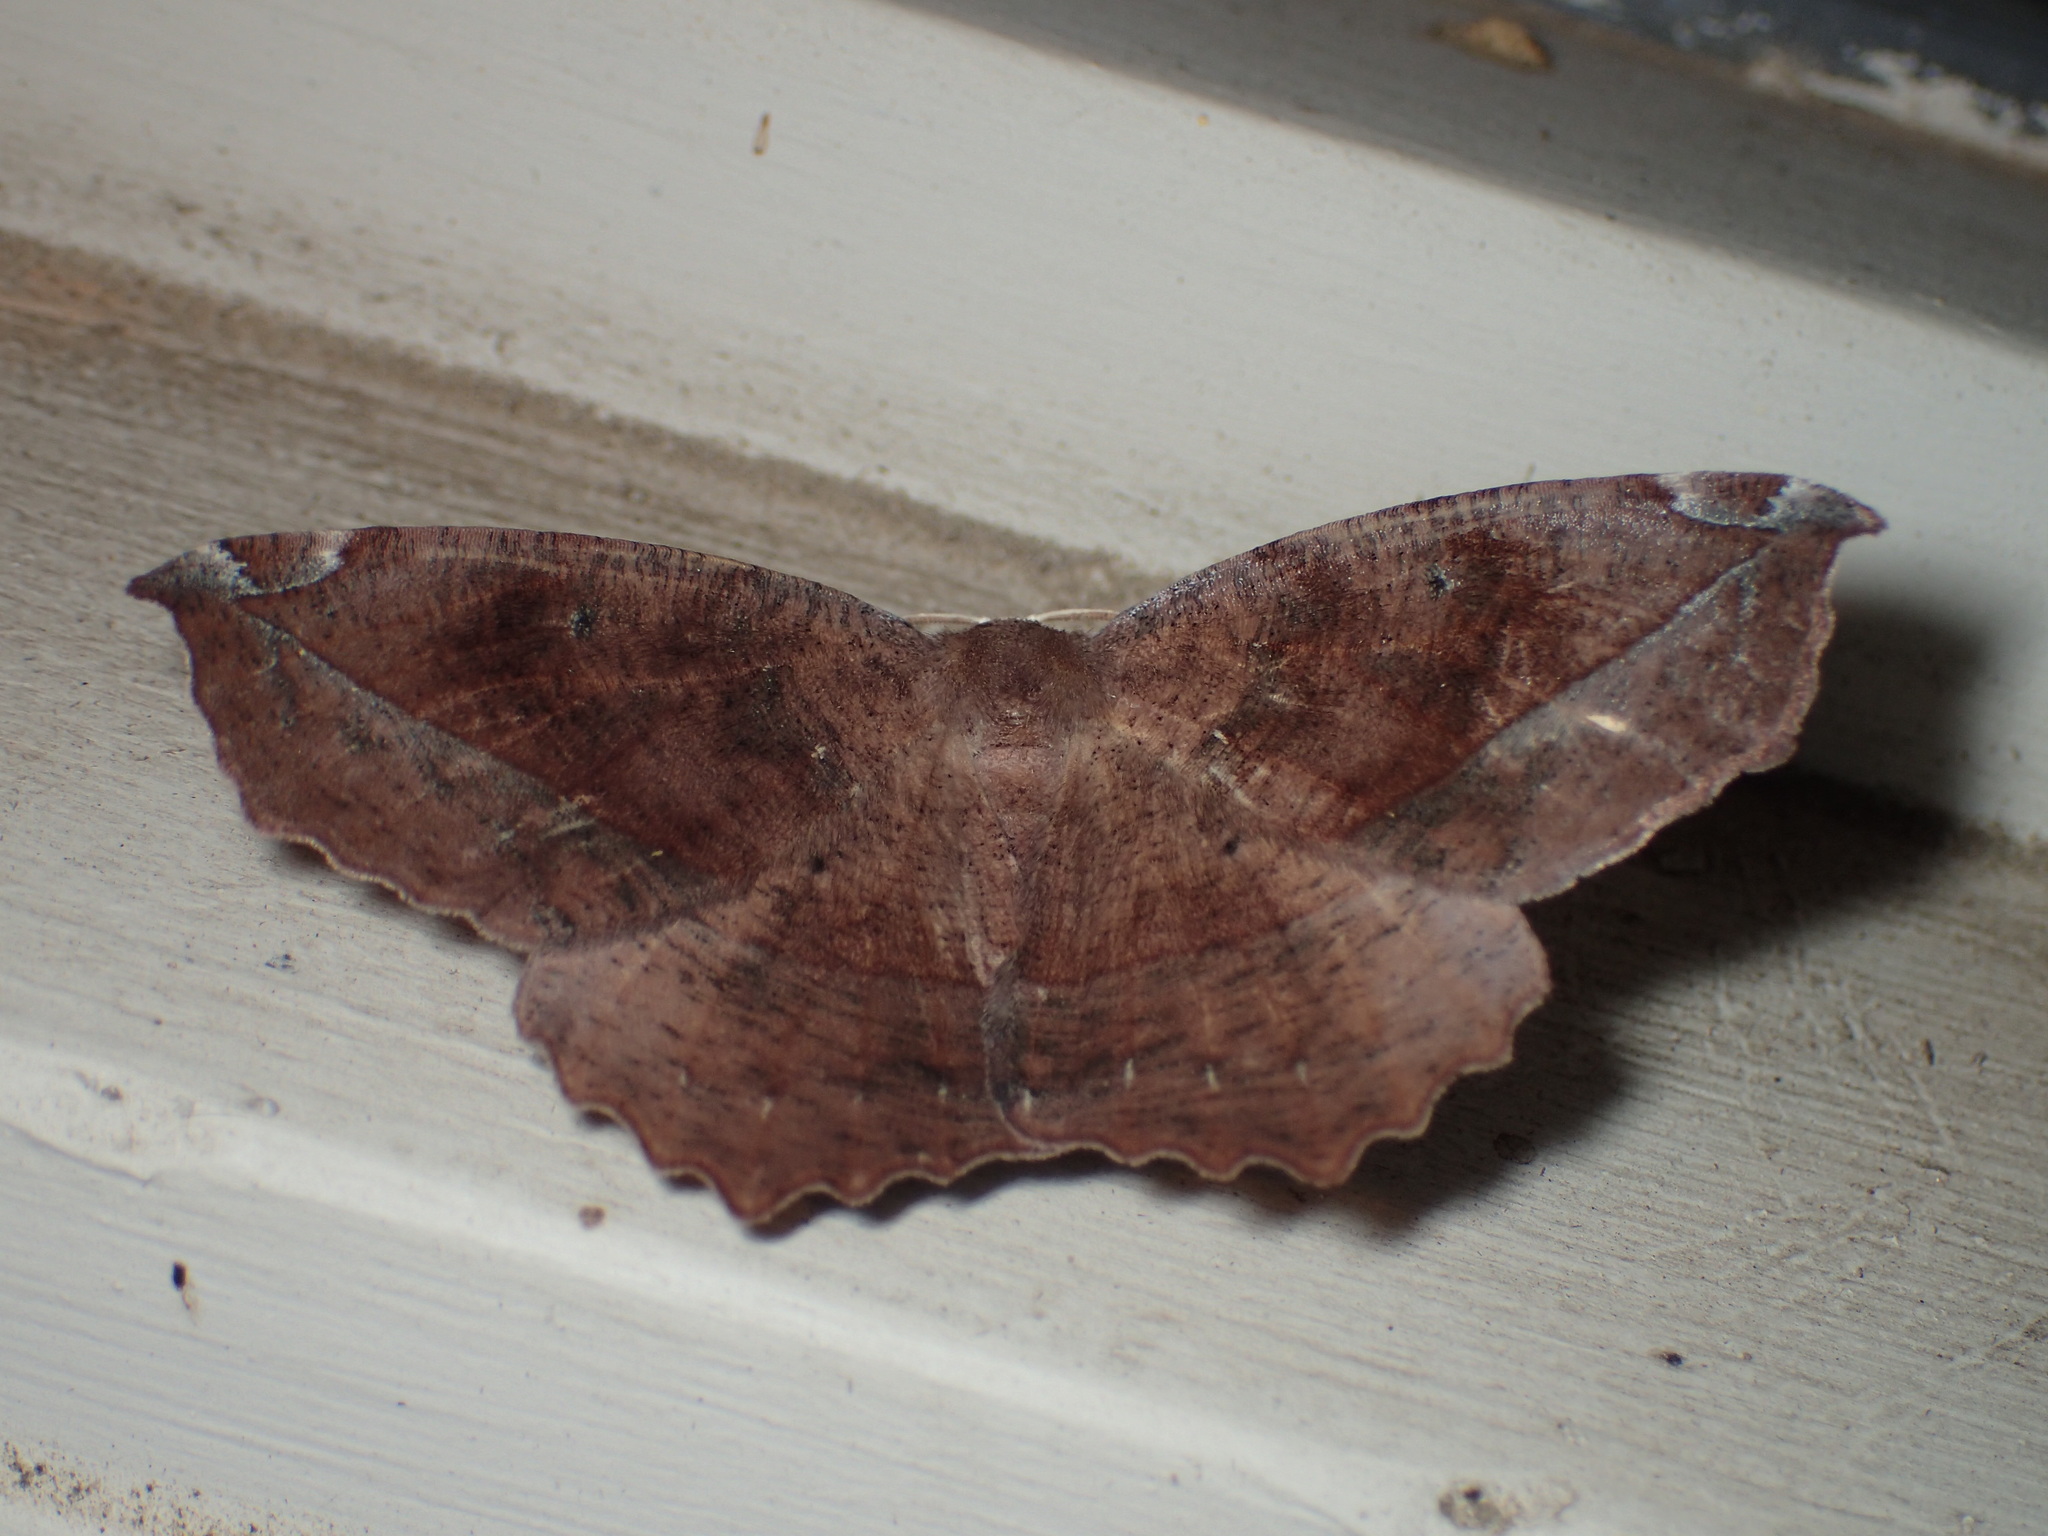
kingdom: Animalia
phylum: Arthropoda
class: Insecta
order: Lepidoptera
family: Geometridae
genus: Eutrapela
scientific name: Eutrapela clemataria
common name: Curved-toothed geometer
